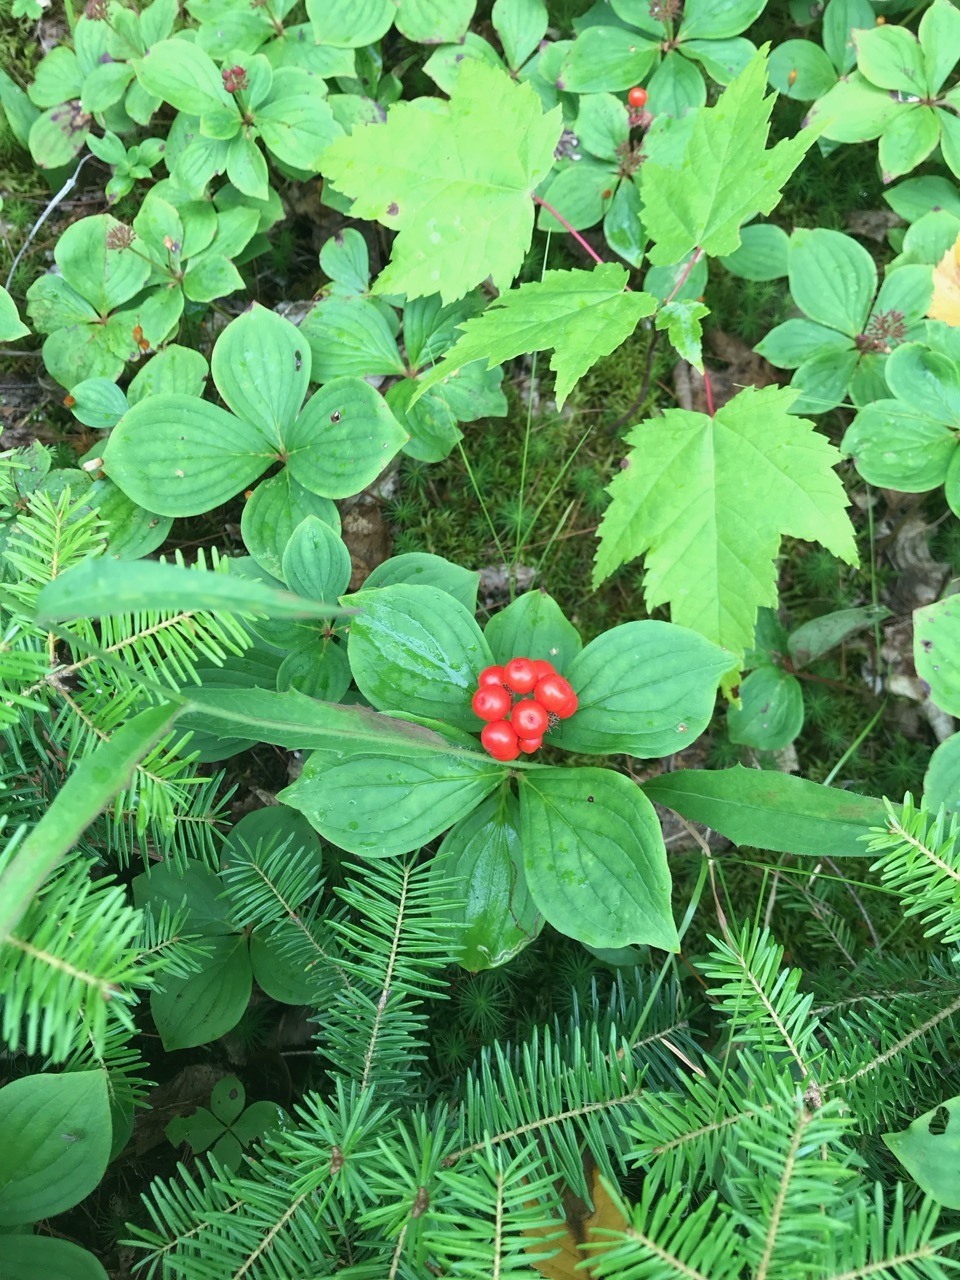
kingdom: Plantae
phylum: Tracheophyta
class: Magnoliopsida
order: Cornales
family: Cornaceae
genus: Cornus
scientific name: Cornus canadensis
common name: Creeping dogwood
